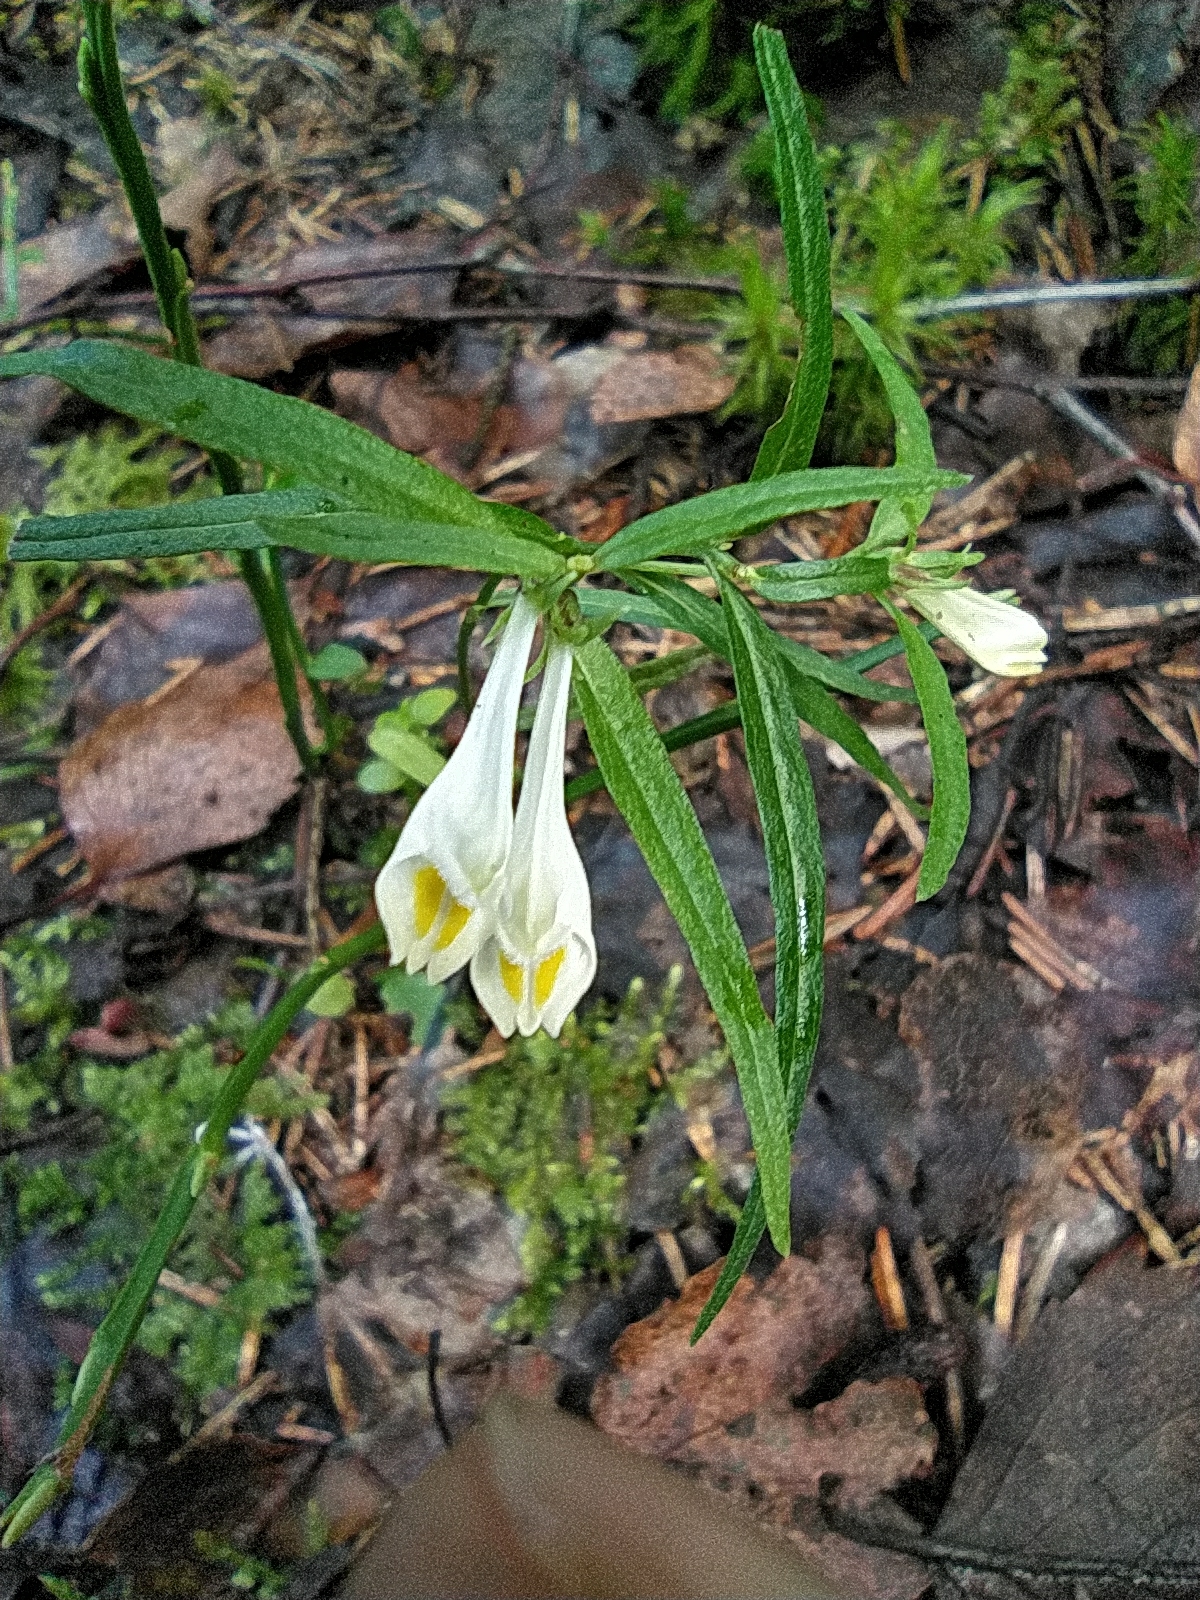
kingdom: Plantae
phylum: Tracheophyta
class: Magnoliopsida
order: Lamiales
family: Orobanchaceae
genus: Melampyrum
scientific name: Melampyrum pratense
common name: Common cow-wheat
